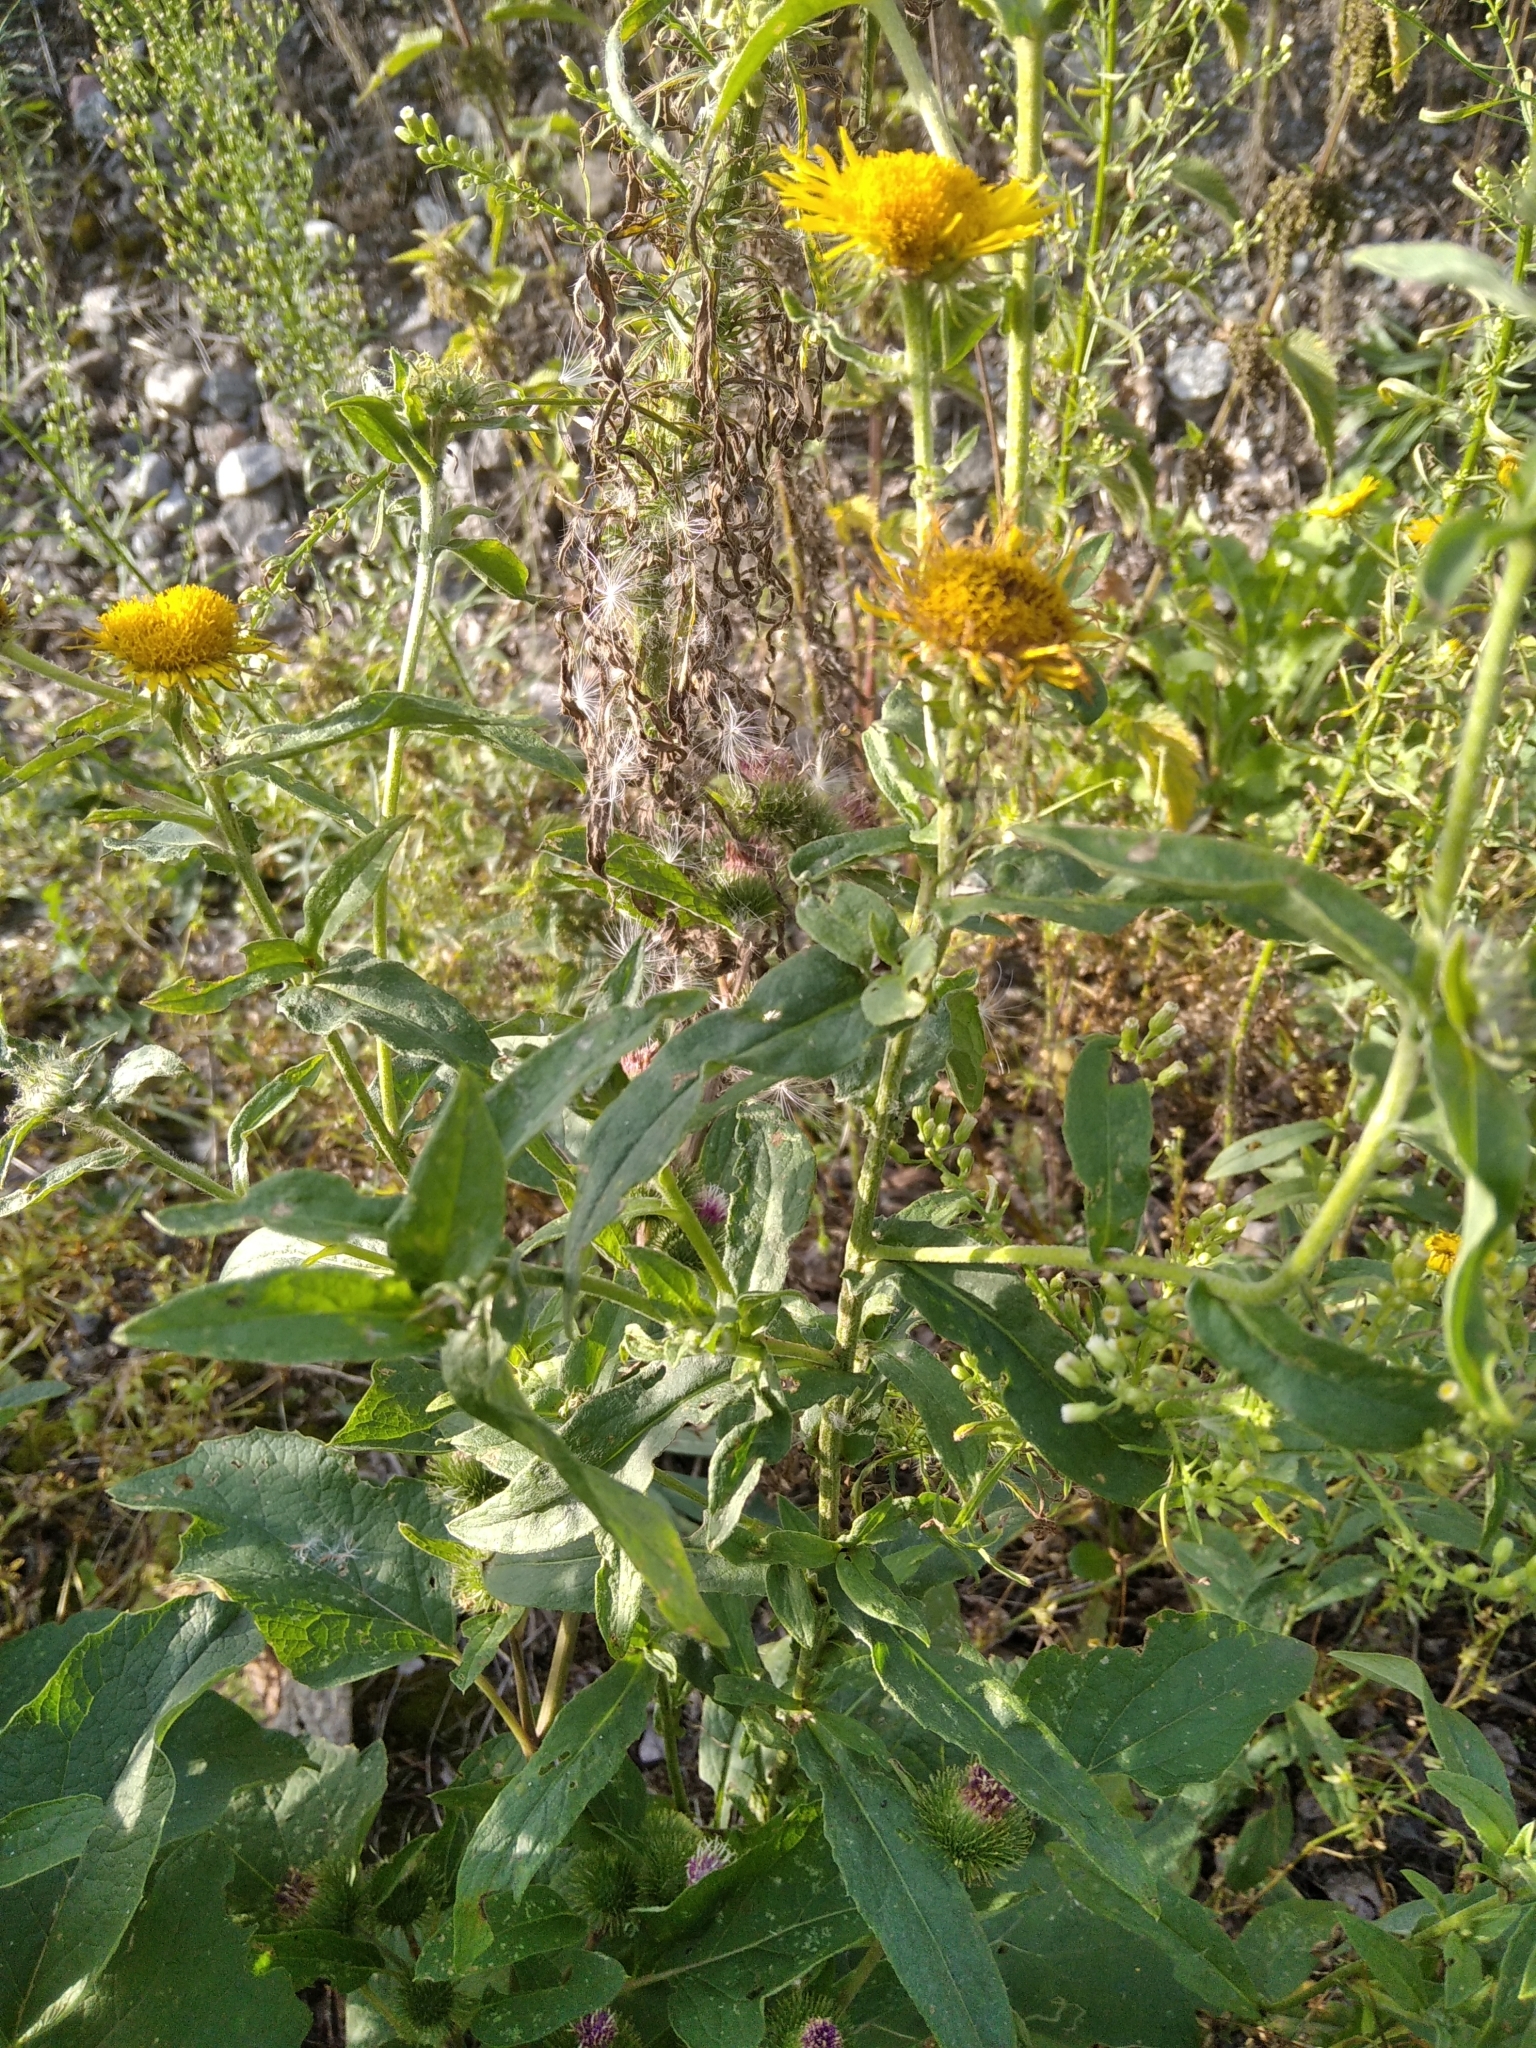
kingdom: Plantae
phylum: Tracheophyta
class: Magnoliopsida
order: Asterales
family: Asteraceae
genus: Pentanema
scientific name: Pentanema britannicum
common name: British elecampane
